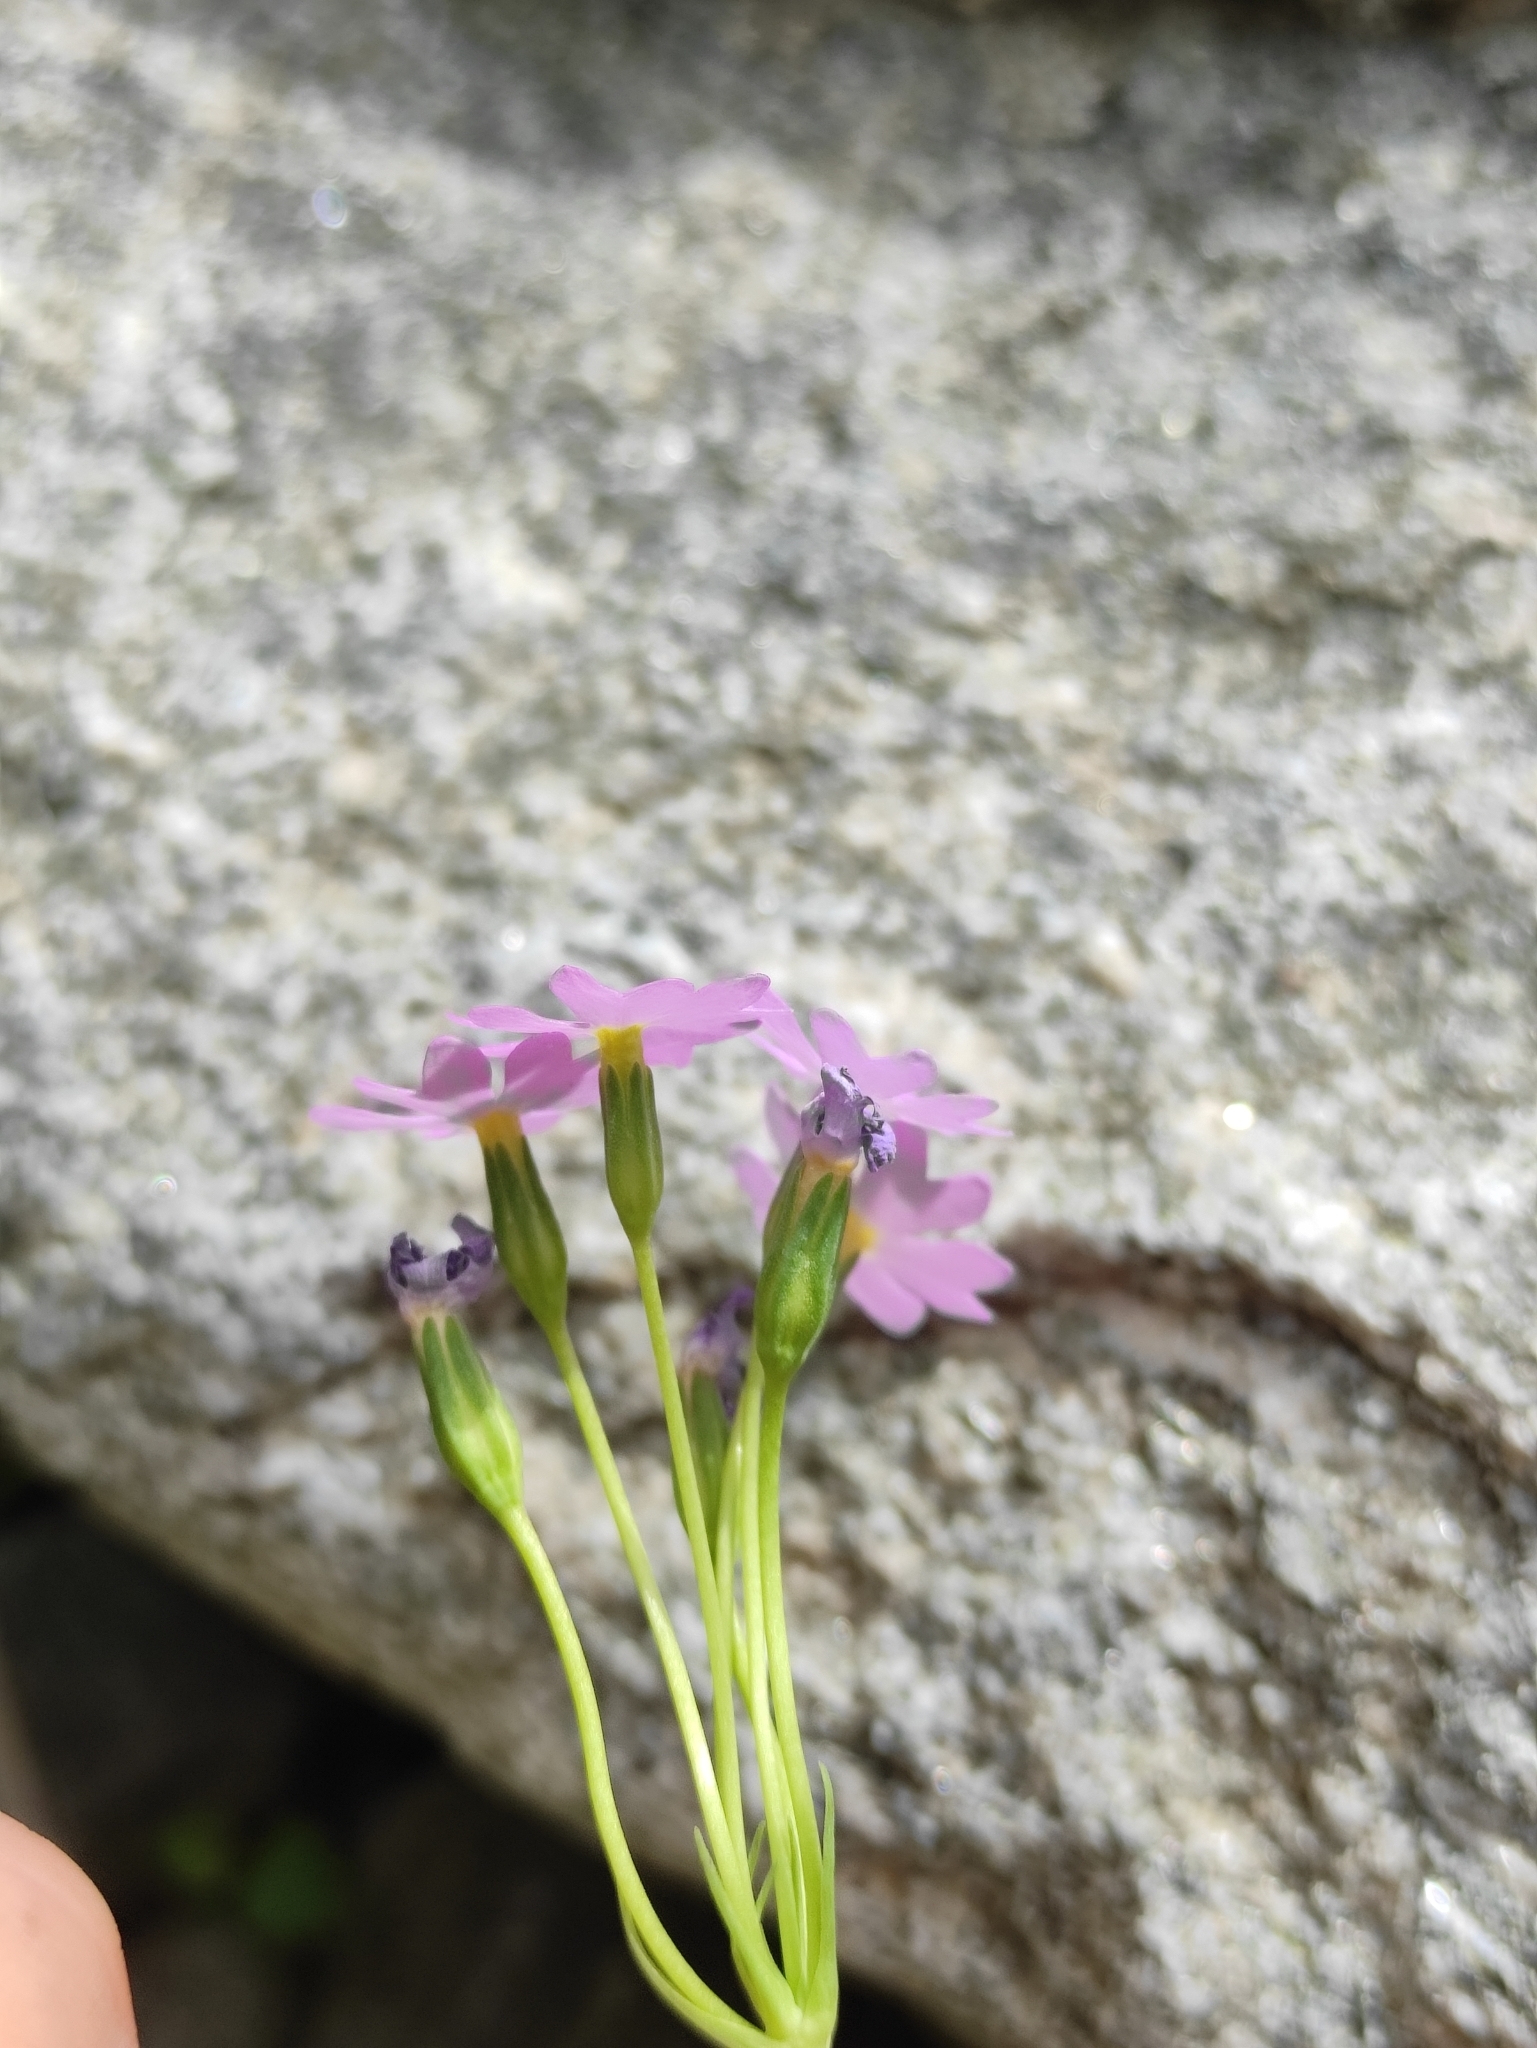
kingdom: Plantae
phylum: Tracheophyta
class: Magnoliopsida
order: Ericales
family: Primulaceae
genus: Primula
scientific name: Primula nutans
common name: Siberian primrose
